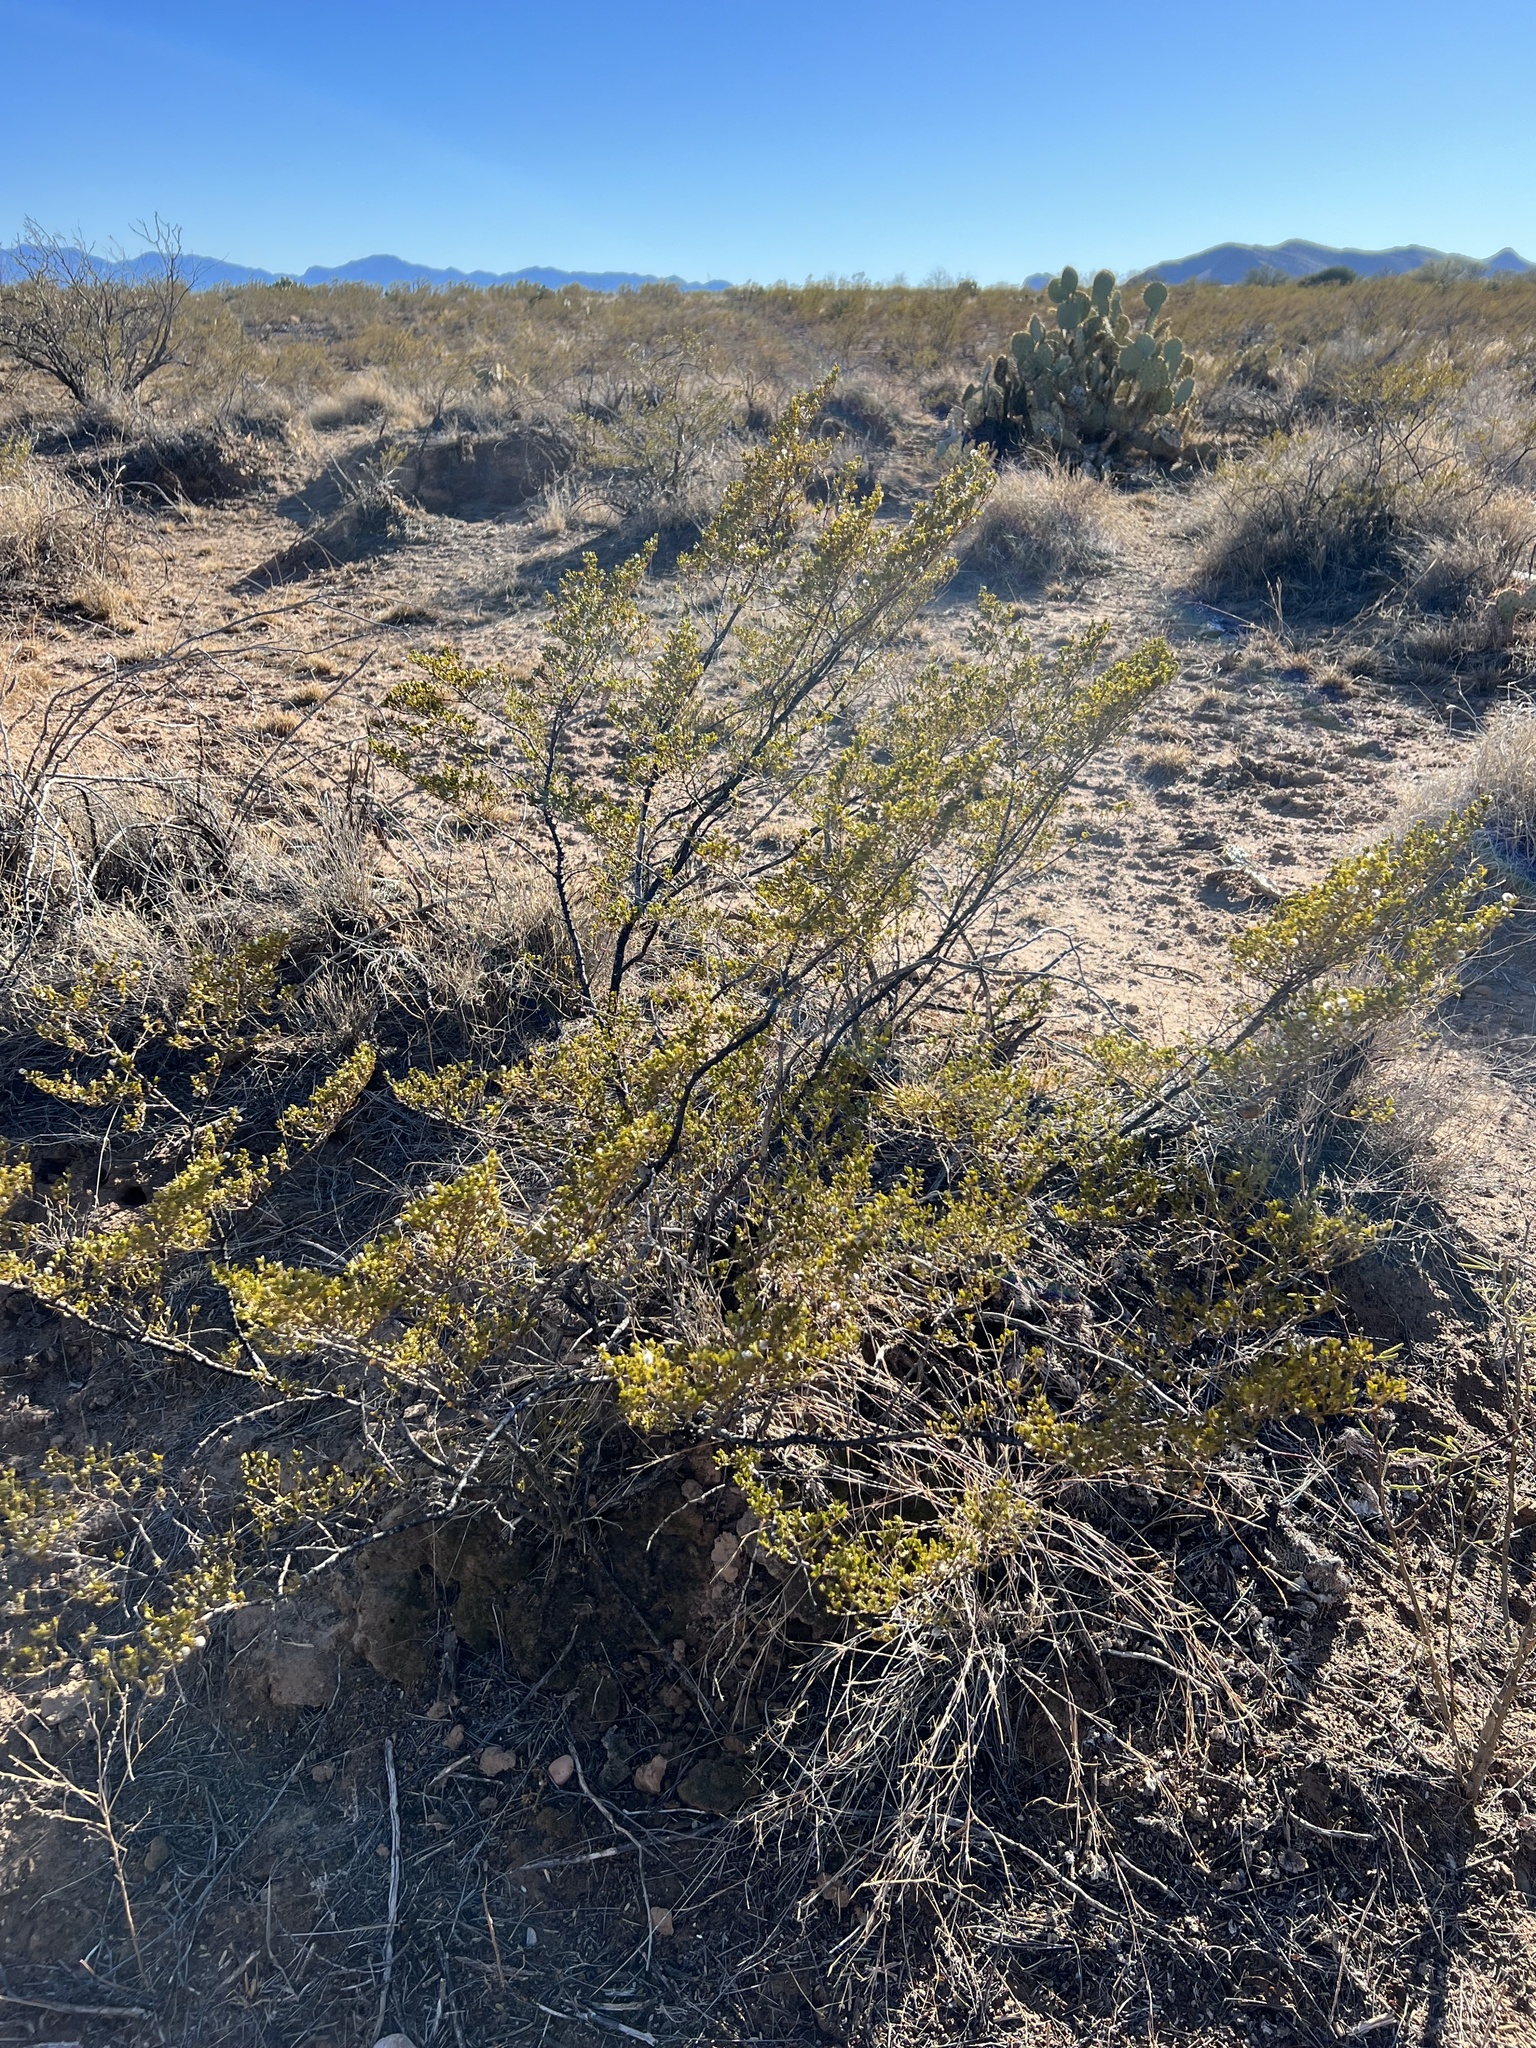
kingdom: Plantae
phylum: Tracheophyta
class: Magnoliopsida
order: Zygophyllales
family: Zygophyllaceae
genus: Larrea
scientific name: Larrea tridentata
